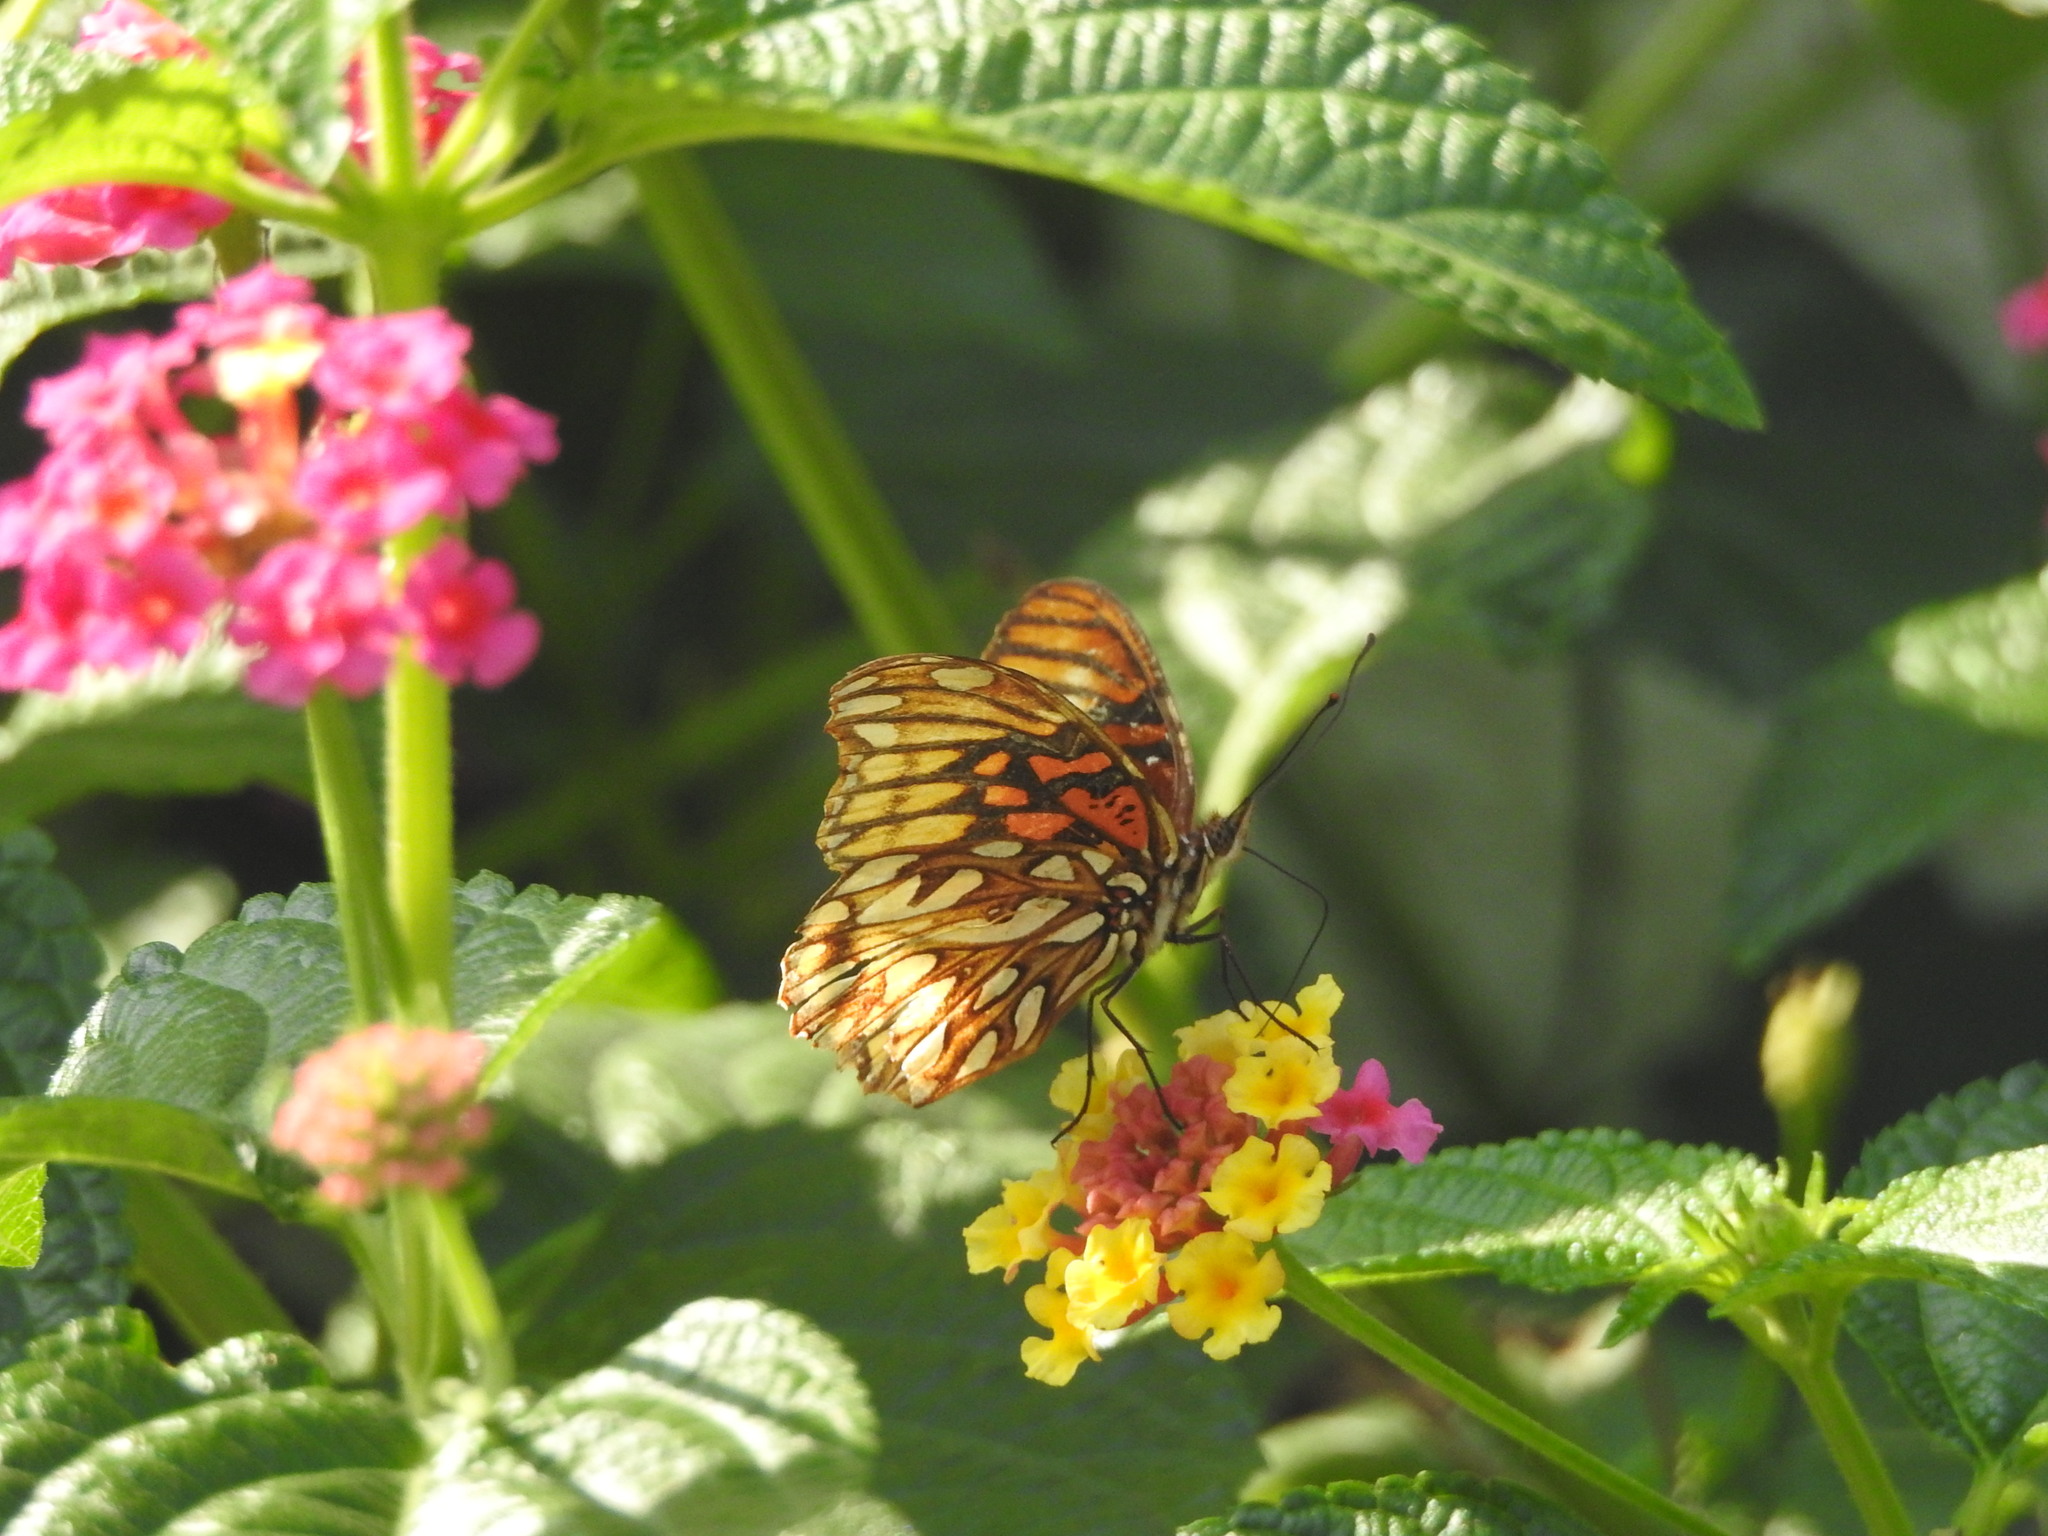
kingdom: Animalia
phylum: Arthropoda
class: Insecta
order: Lepidoptera
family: Nymphalidae
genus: Dione
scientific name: Dione moneta
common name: Mexican silverspot
